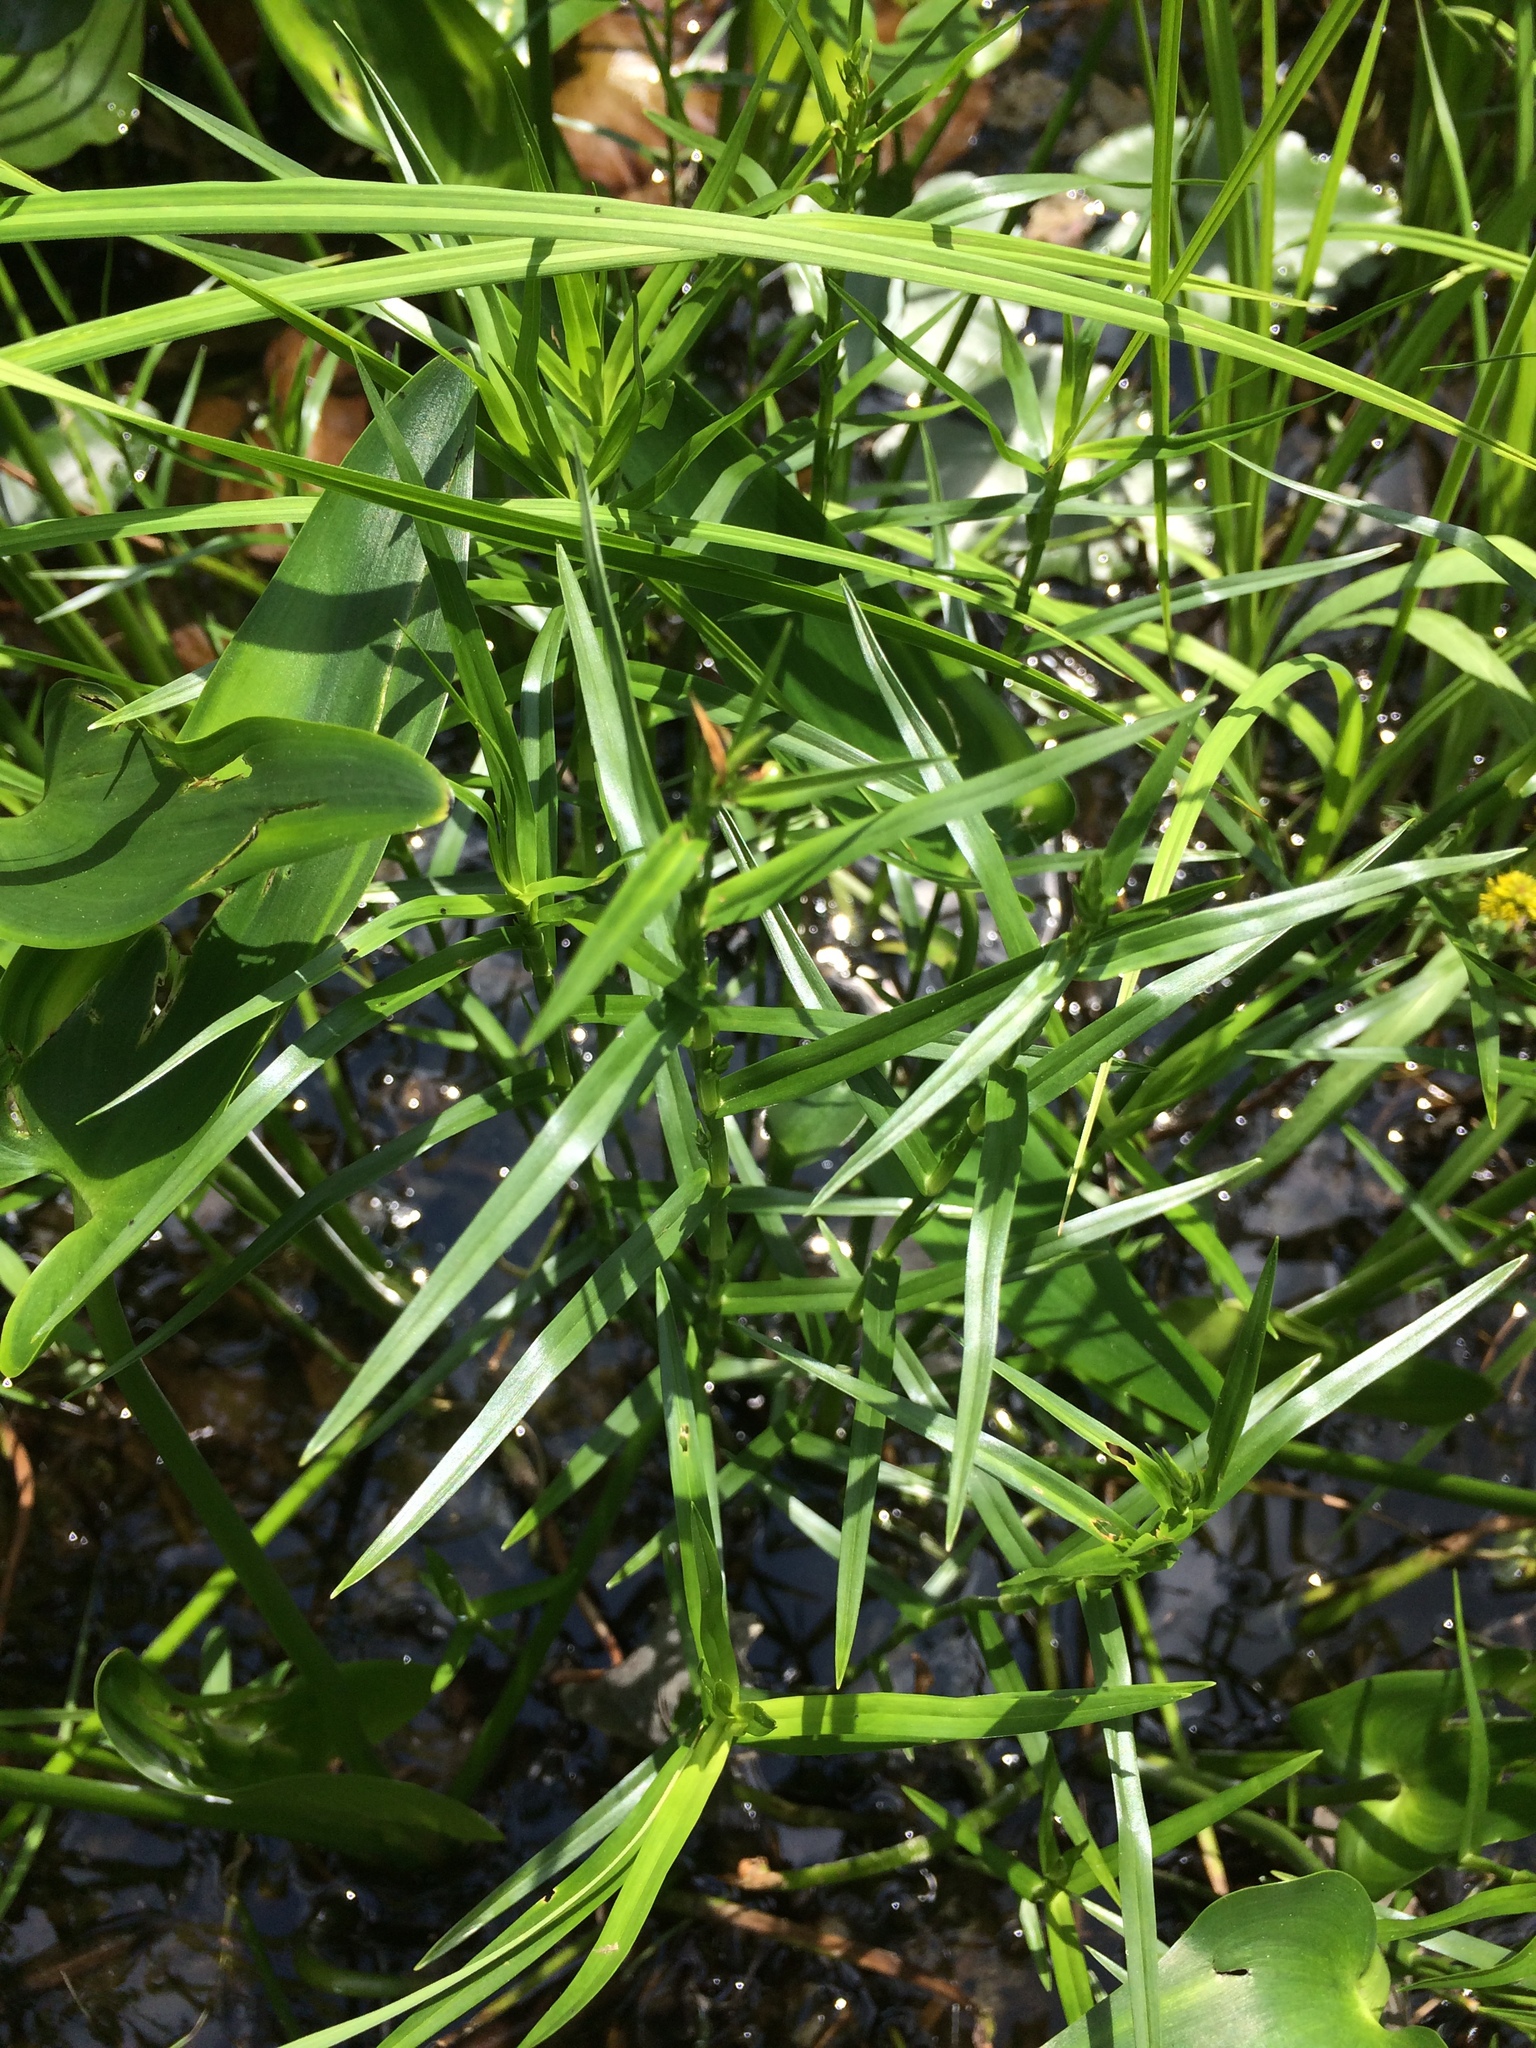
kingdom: Plantae
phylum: Tracheophyta
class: Liliopsida
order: Poales
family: Cyperaceae
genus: Dulichium
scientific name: Dulichium arundinaceum
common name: Three-way sedge
